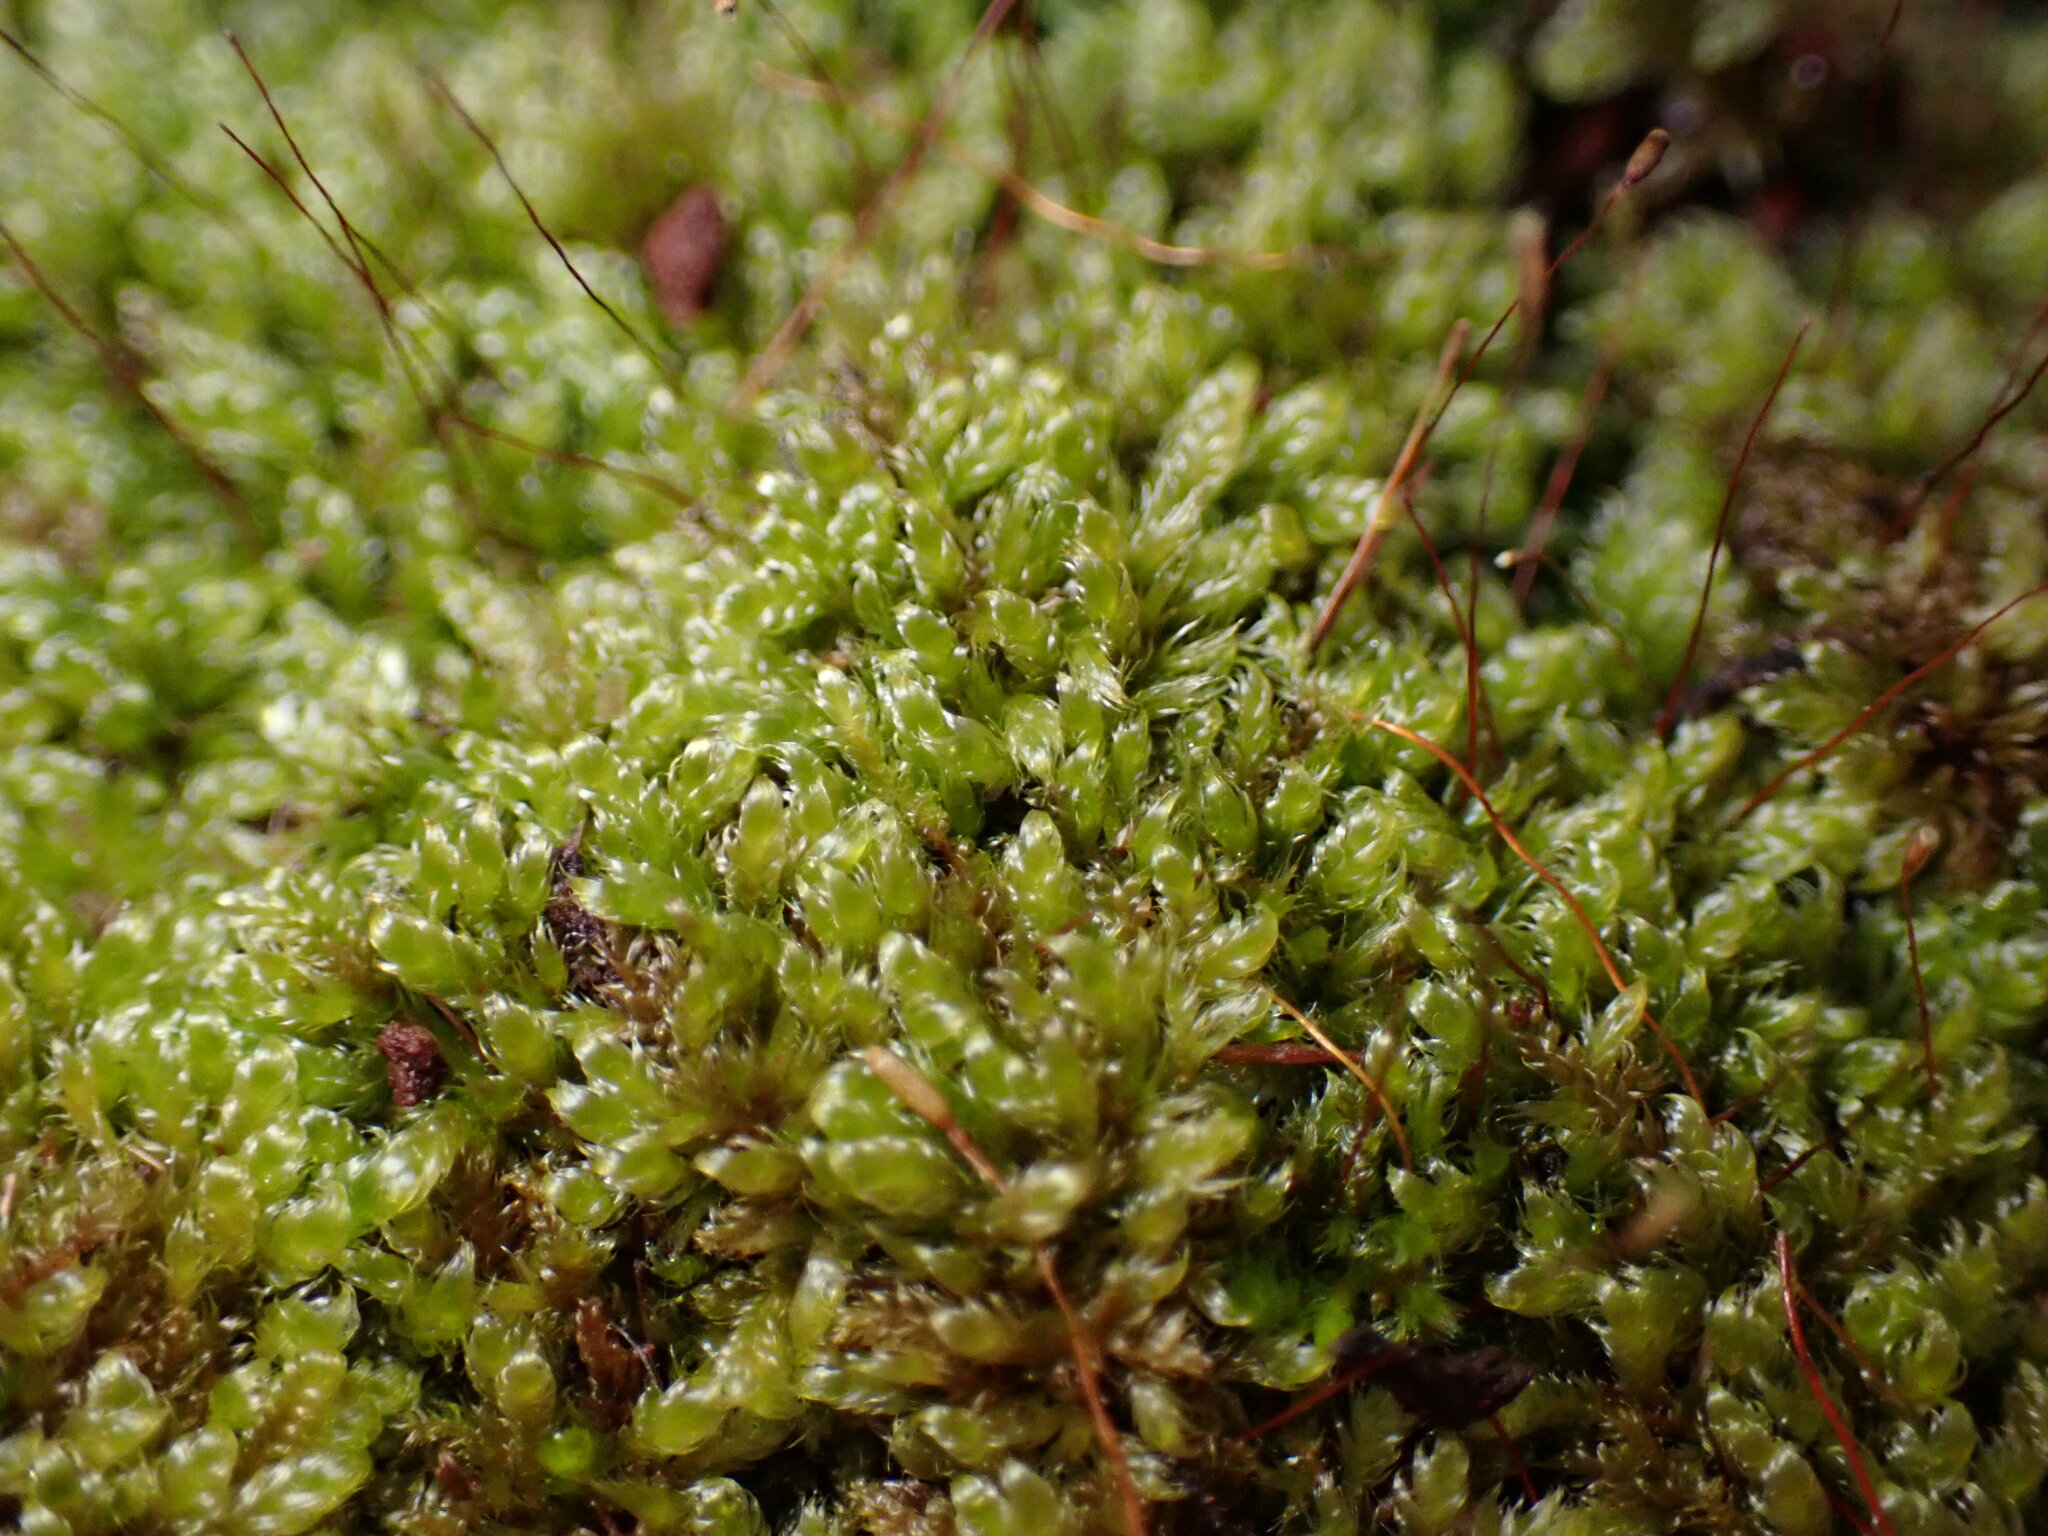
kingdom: Plantae
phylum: Bryophyta
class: Bryopsida
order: Hypnales
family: Hypnaceae
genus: Hypnum
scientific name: Hypnum cupressiforme
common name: Cypress-leaved plait-moss
